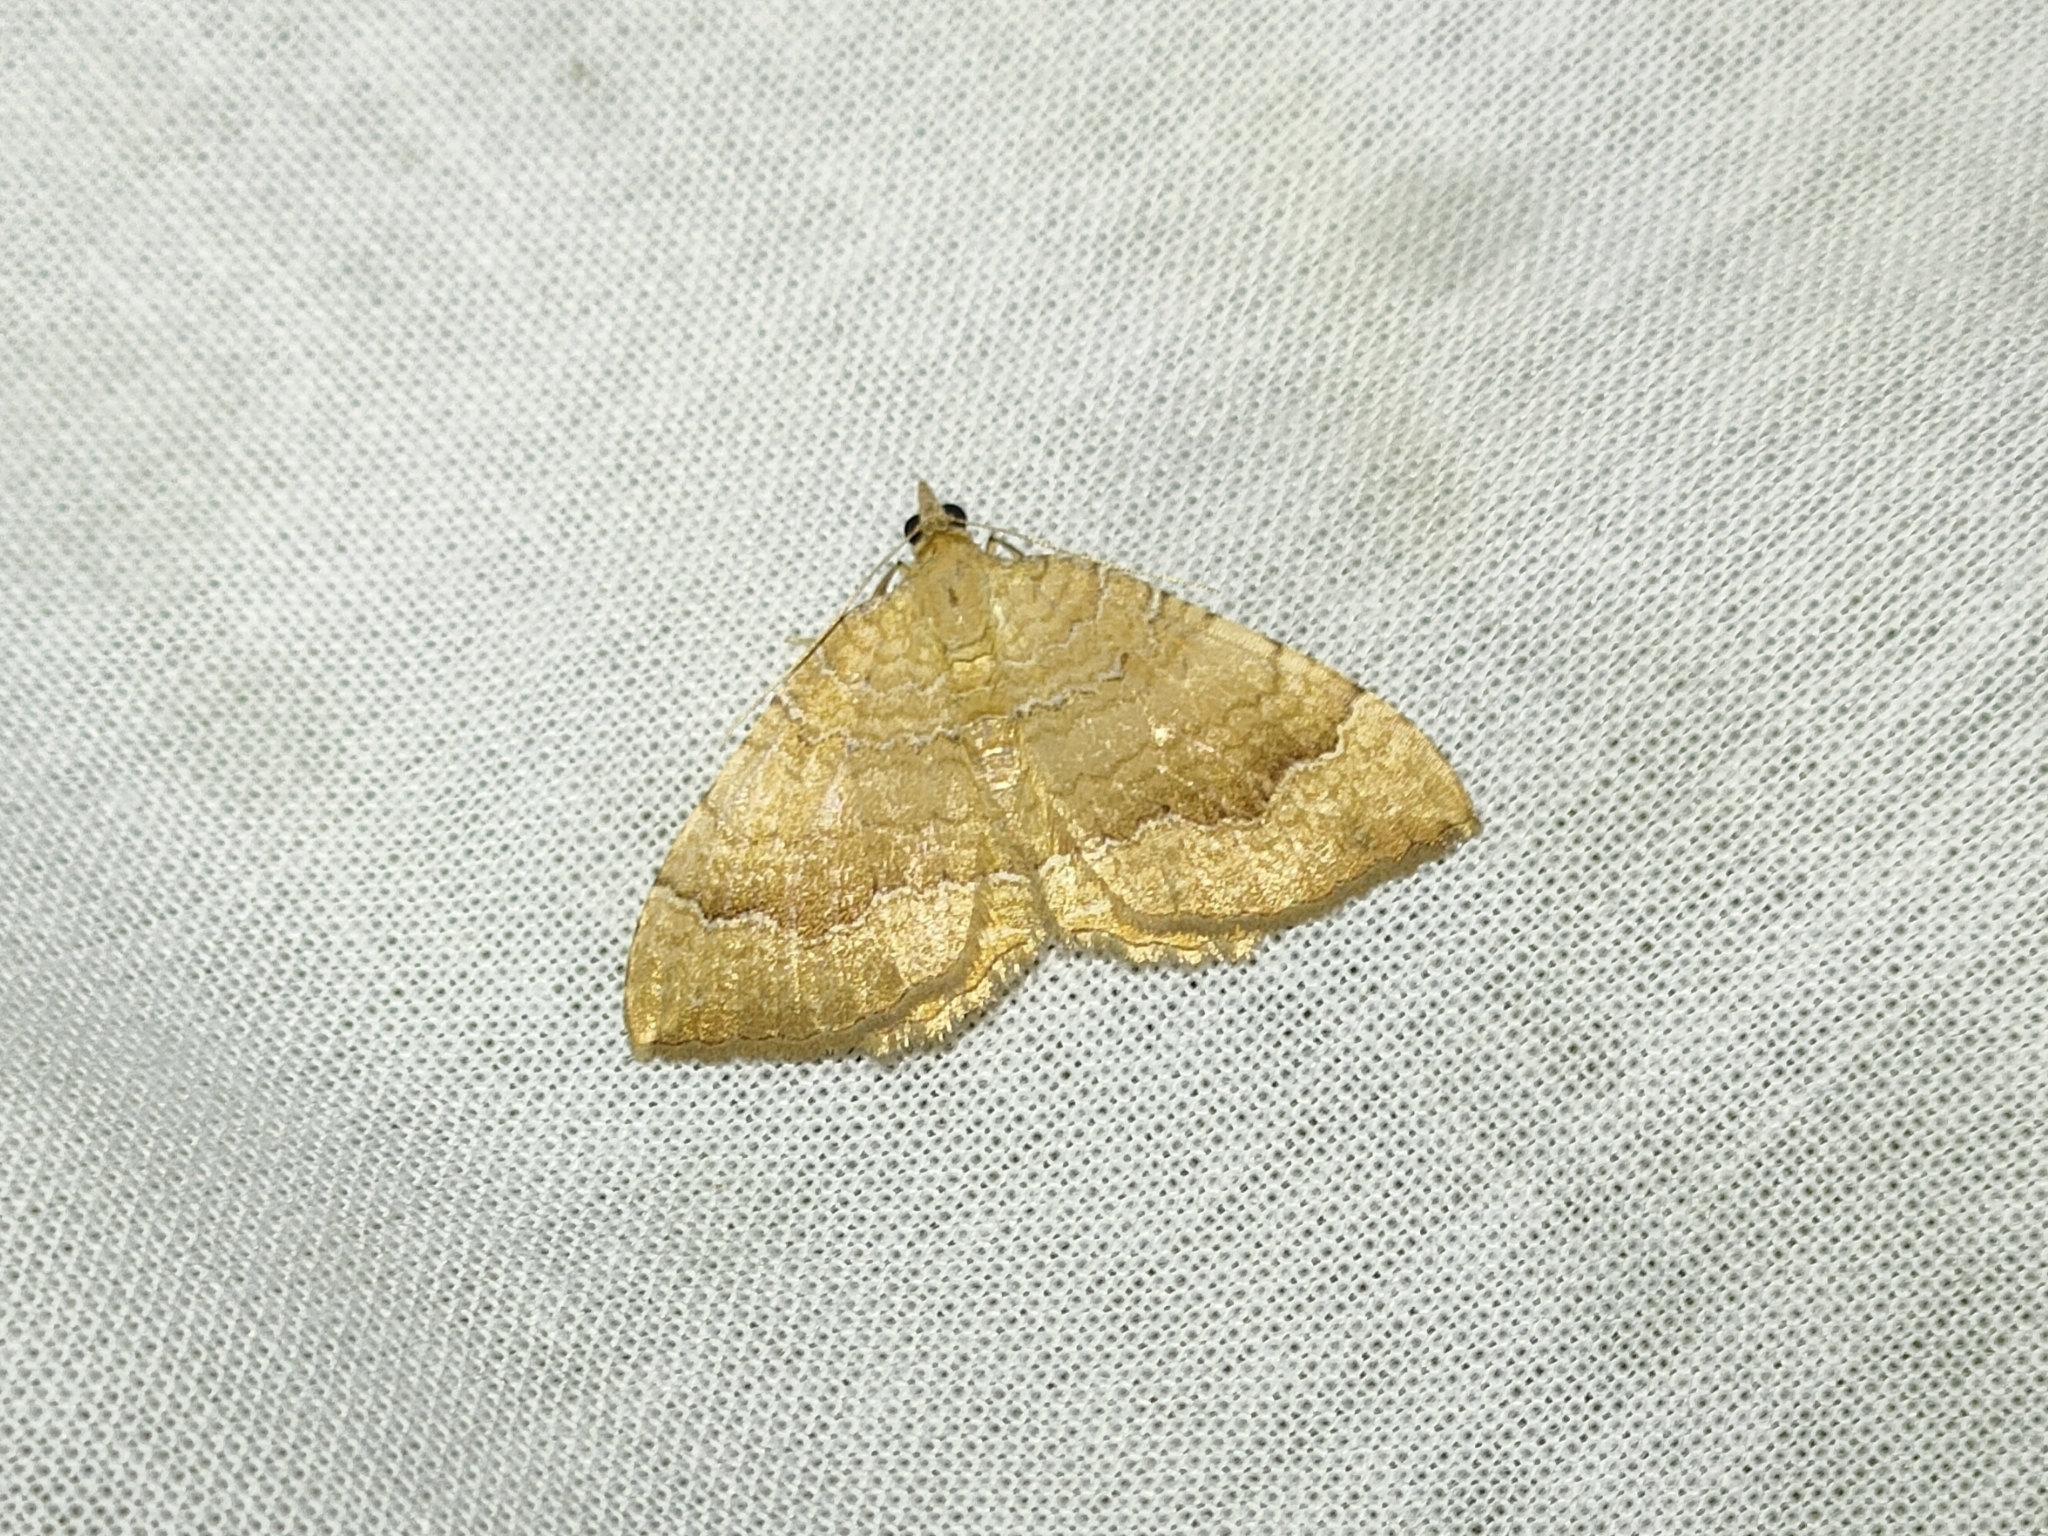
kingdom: Animalia
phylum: Arthropoda
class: Insecta
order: Lepidoptera
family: Geometridae
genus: Camptogramma
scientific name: Camptogramma bilineata
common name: Yellow shell
